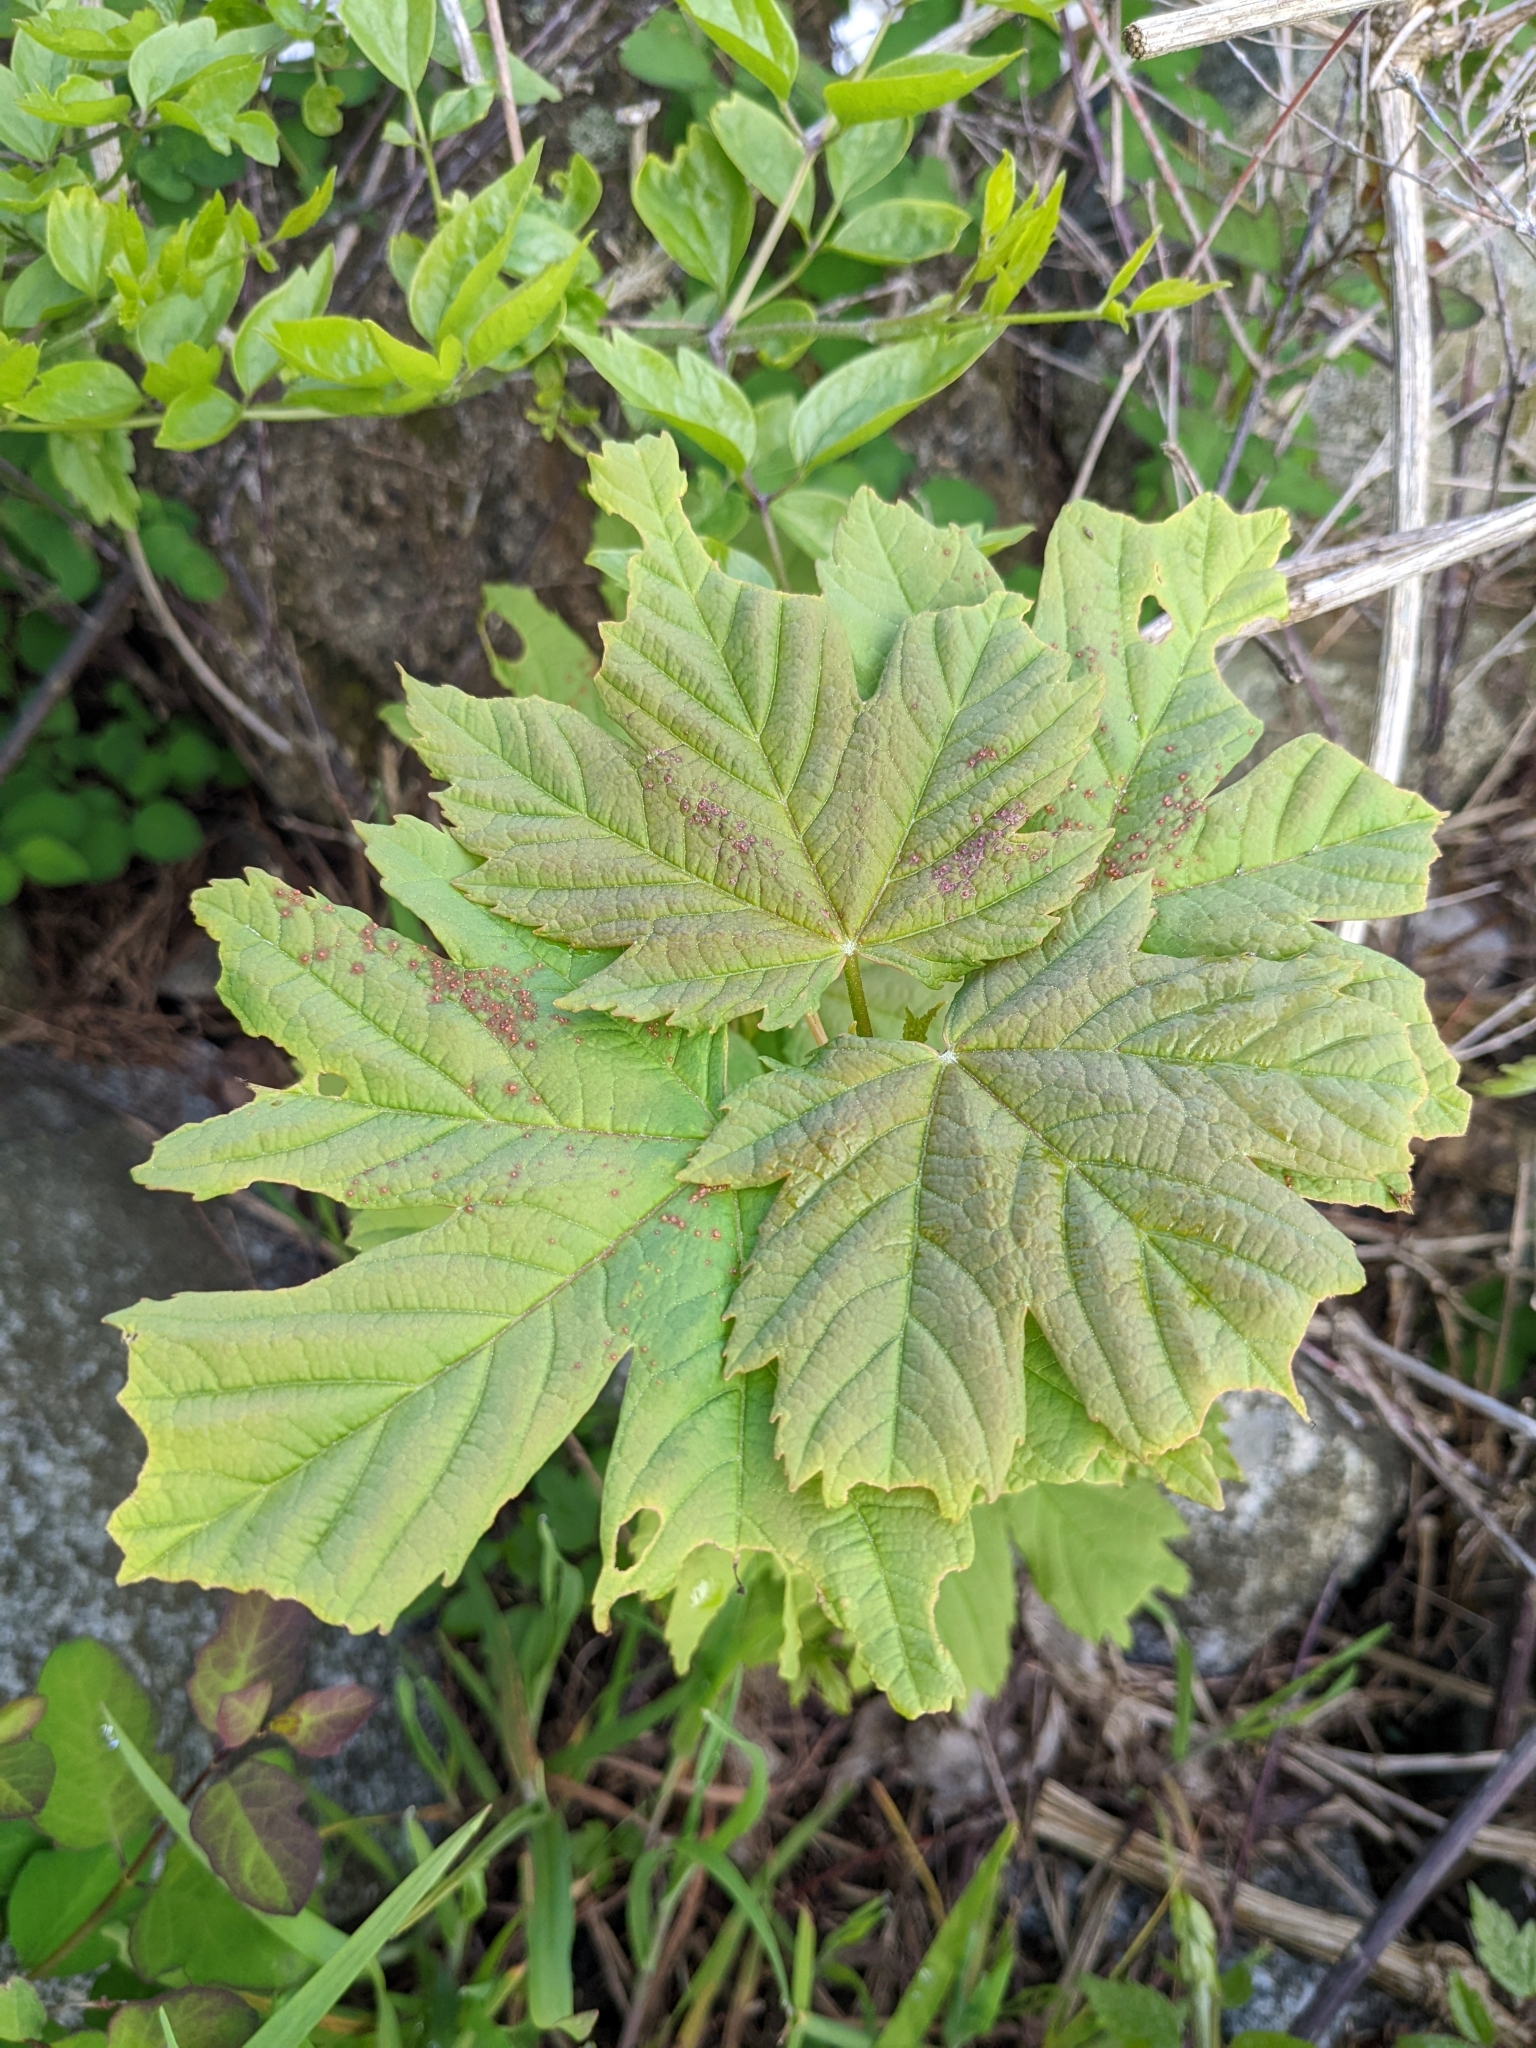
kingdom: Plantae
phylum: Tracheophyta
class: Magnoliopsida
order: Sapindales
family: Sapindaceae
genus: Acer
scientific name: Acer pseudoplatanus
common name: Sycamore
